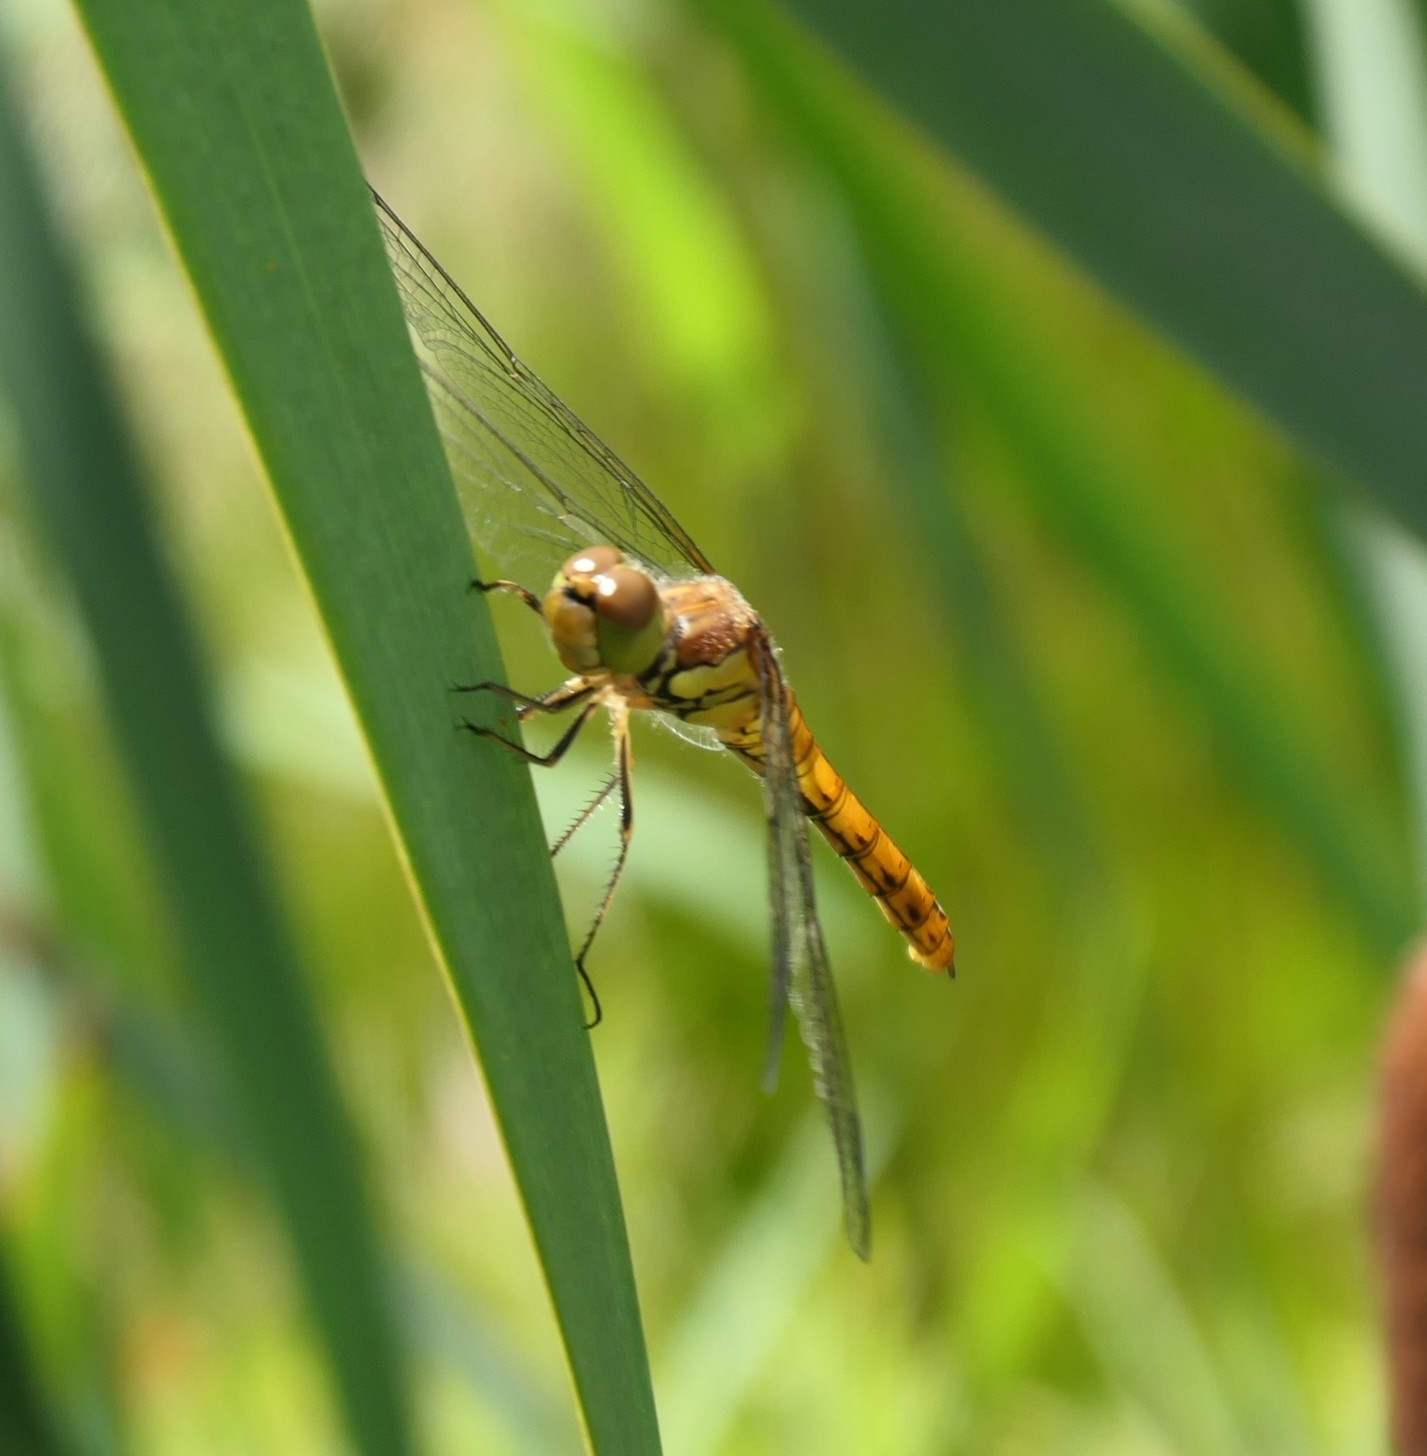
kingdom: Animalia
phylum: Arthropoda
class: Insecta
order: Odonata
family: Libellulidae
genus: Sympetrum
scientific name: Sympetrum striolatum
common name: Common darter
